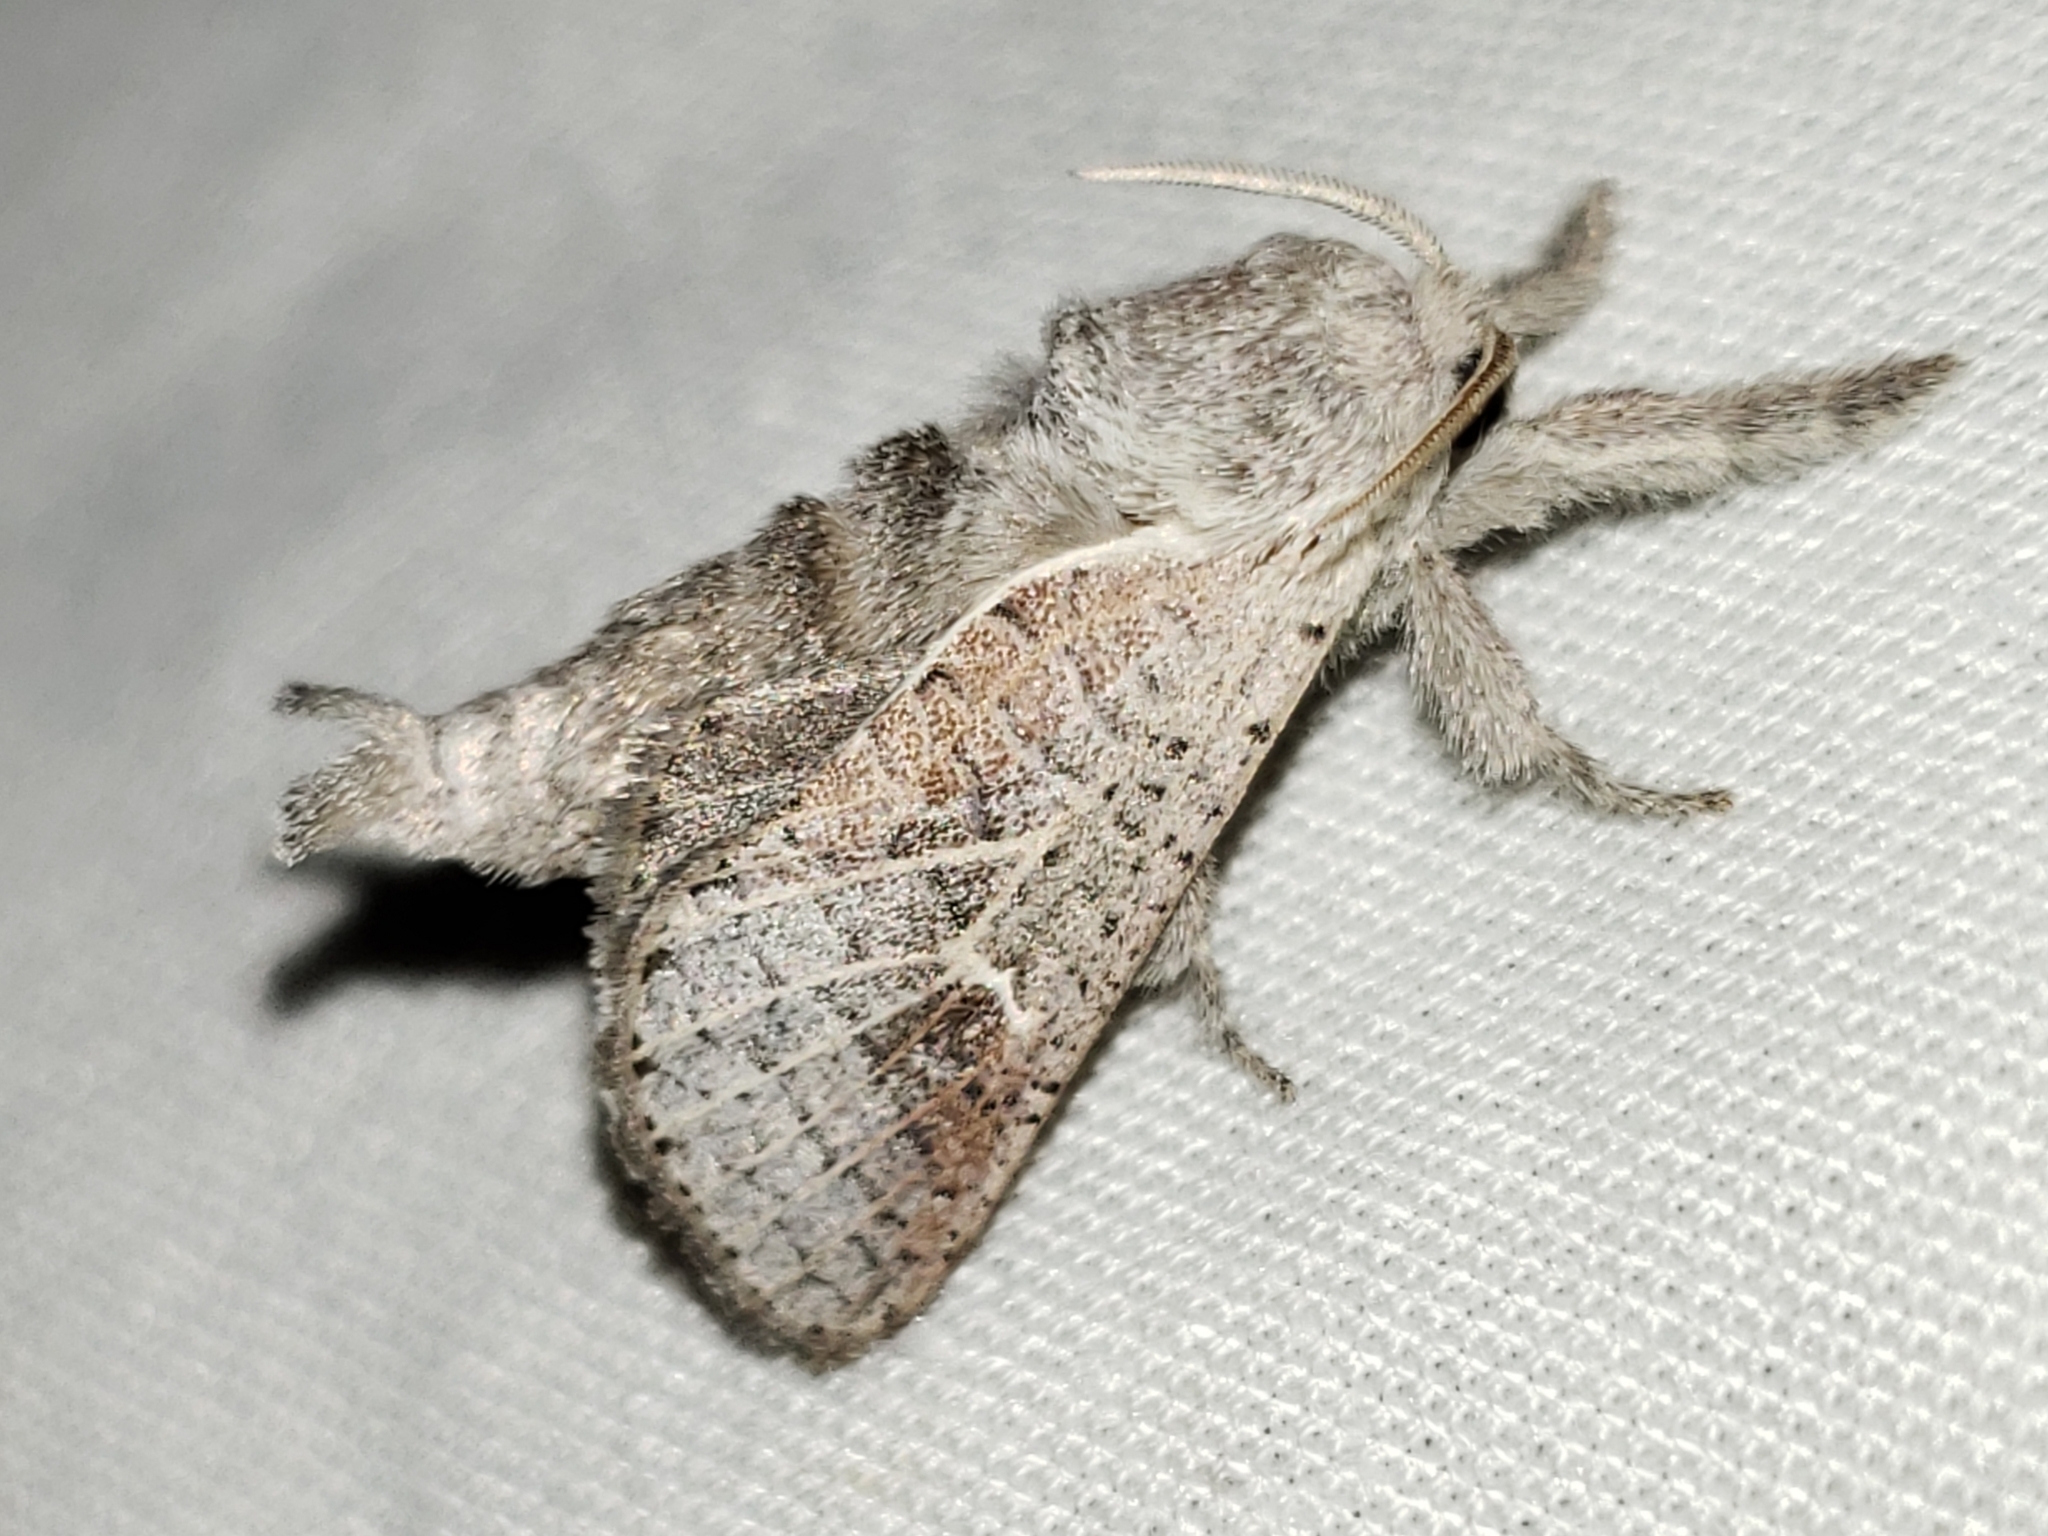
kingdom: Animalia
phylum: Arthropoda
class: Insecta
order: Lepidoptera
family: Cossidae
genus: Givira
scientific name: Givira anna
